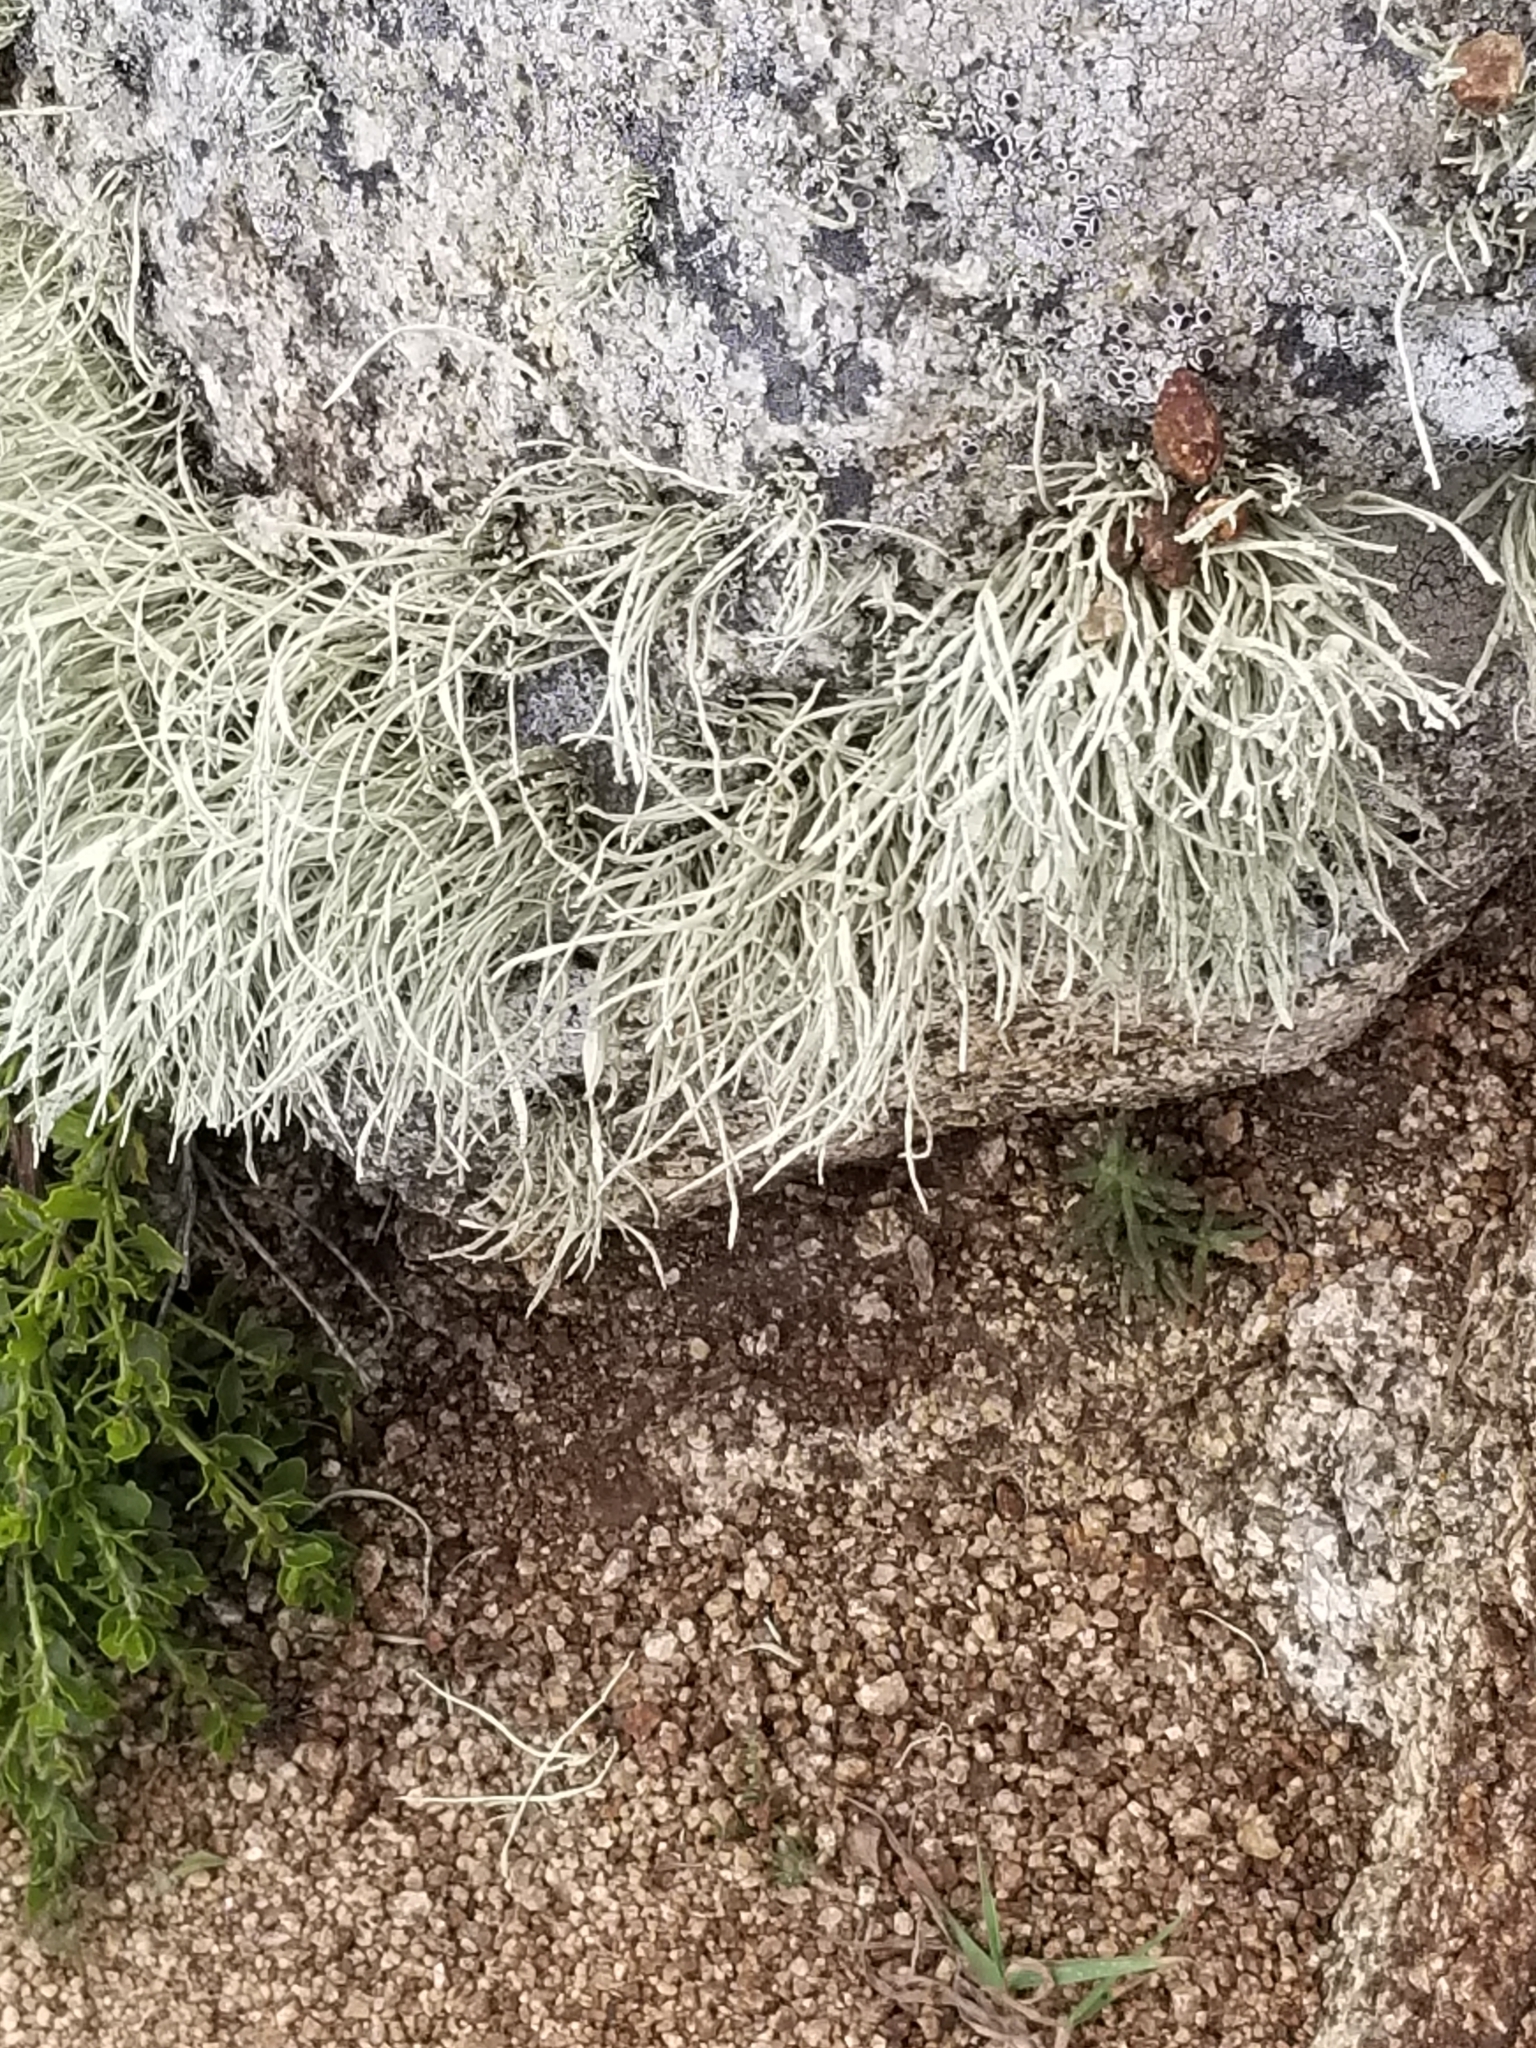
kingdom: Fungi
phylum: Ascomycota
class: Lecanoromycetes
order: Lecanorales
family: Ramalinaceae
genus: Niebla
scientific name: Niebla homalea
